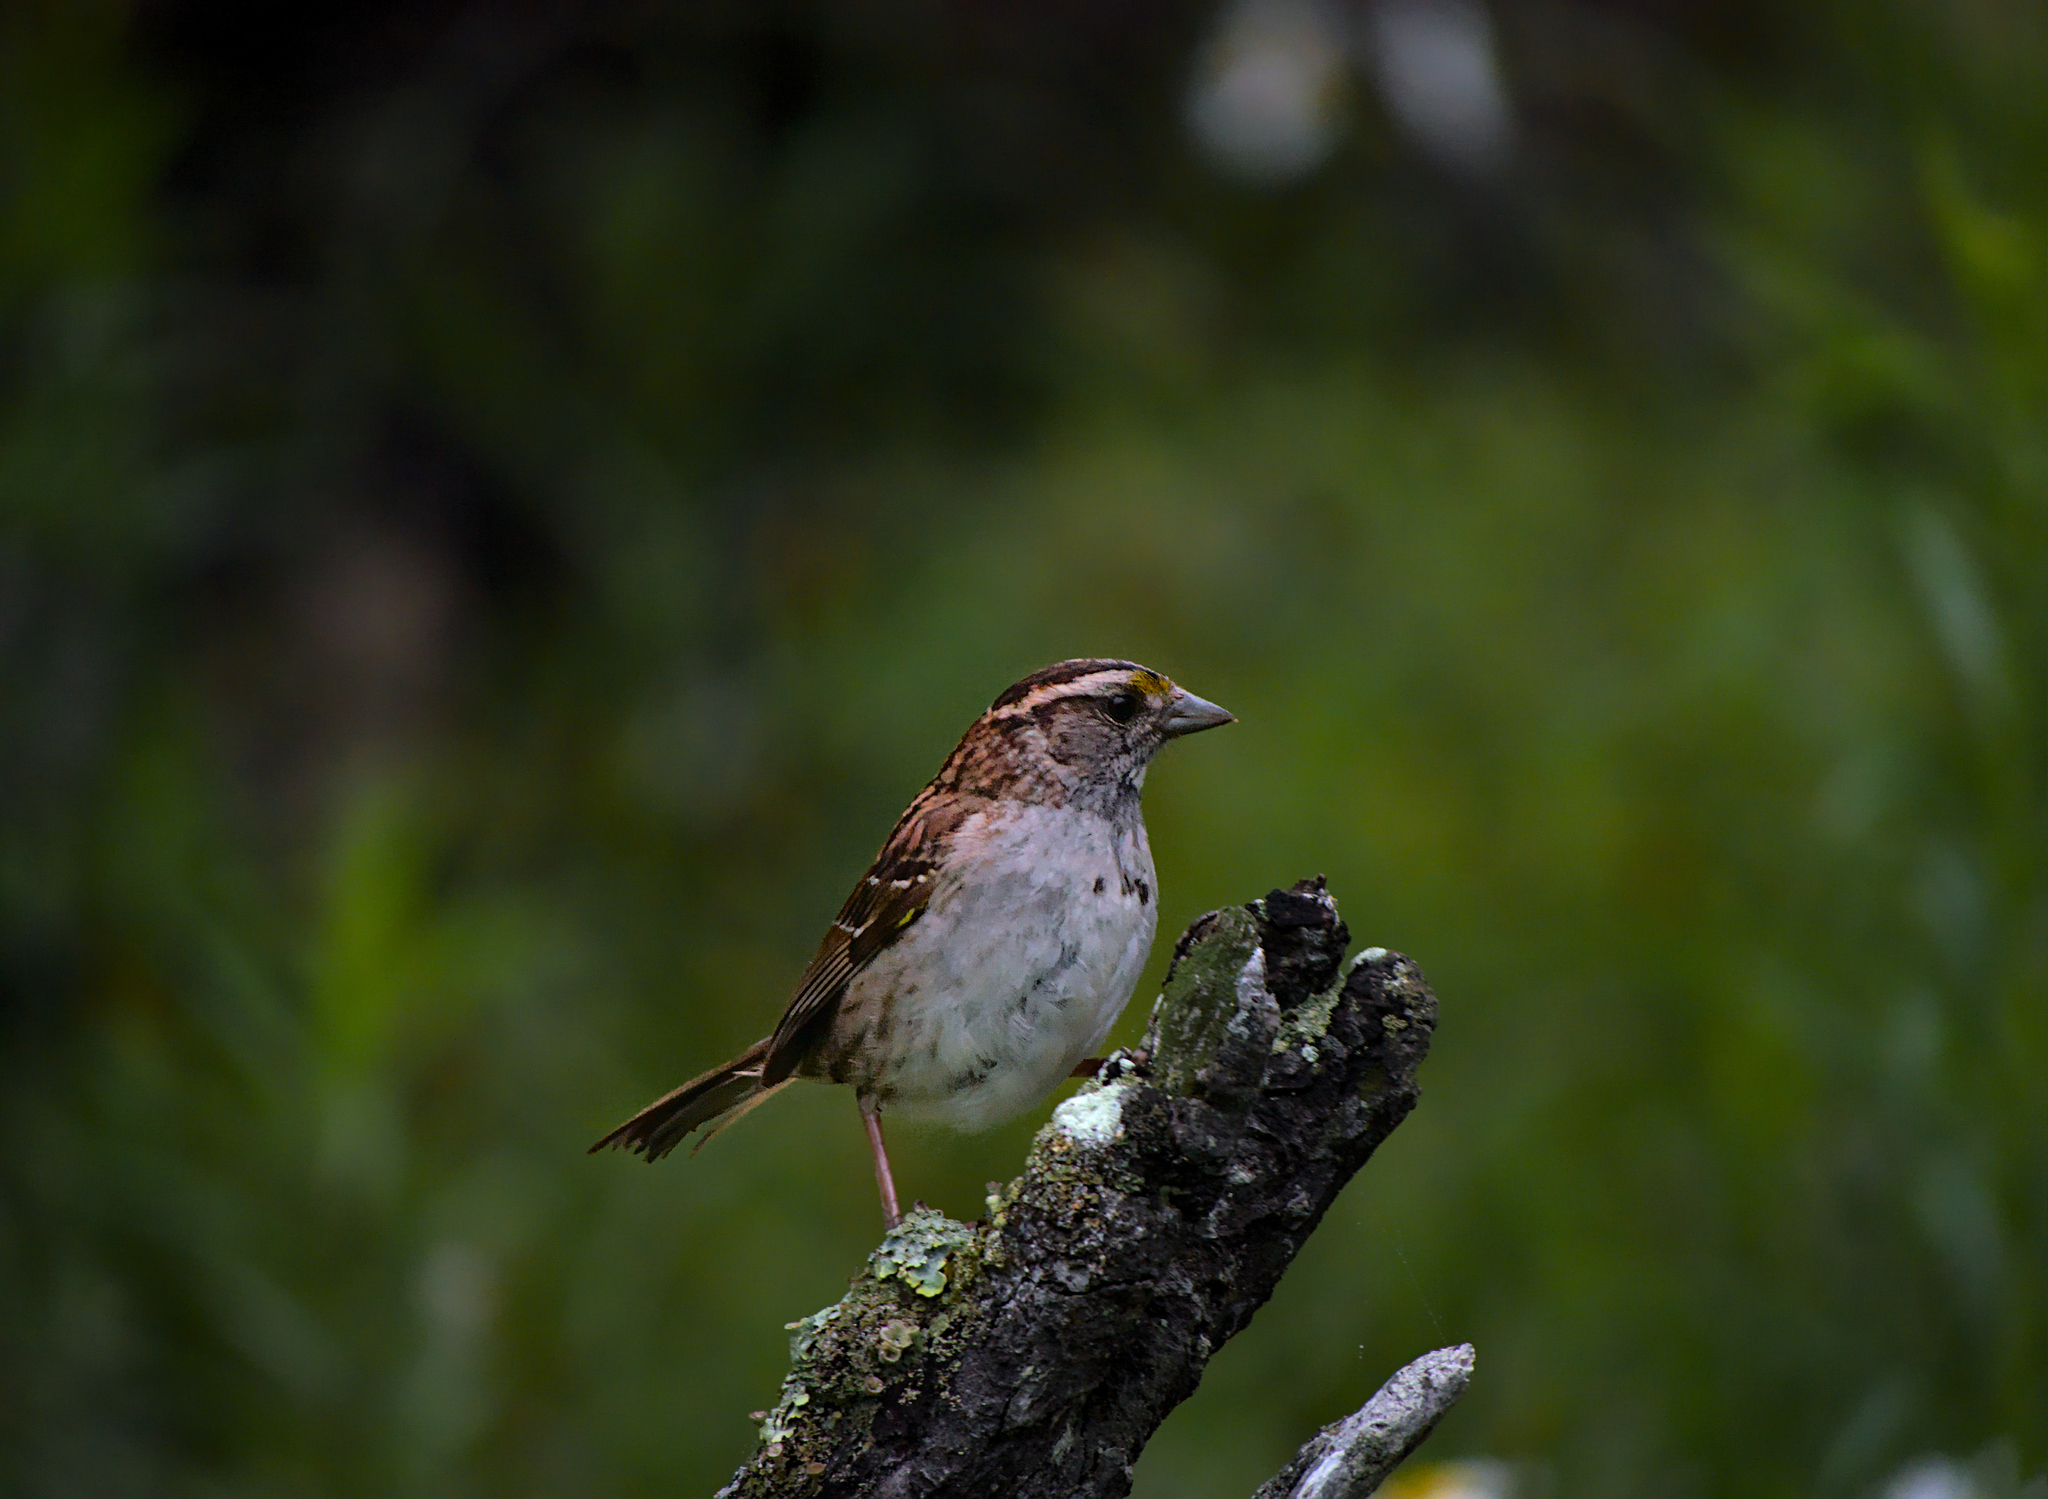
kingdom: Animalia
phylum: Chordata
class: Aves
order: Passeriformes
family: Passerellidae
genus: Zonotrichia
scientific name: Zonotrichia albicollis
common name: White-throated sparrow
